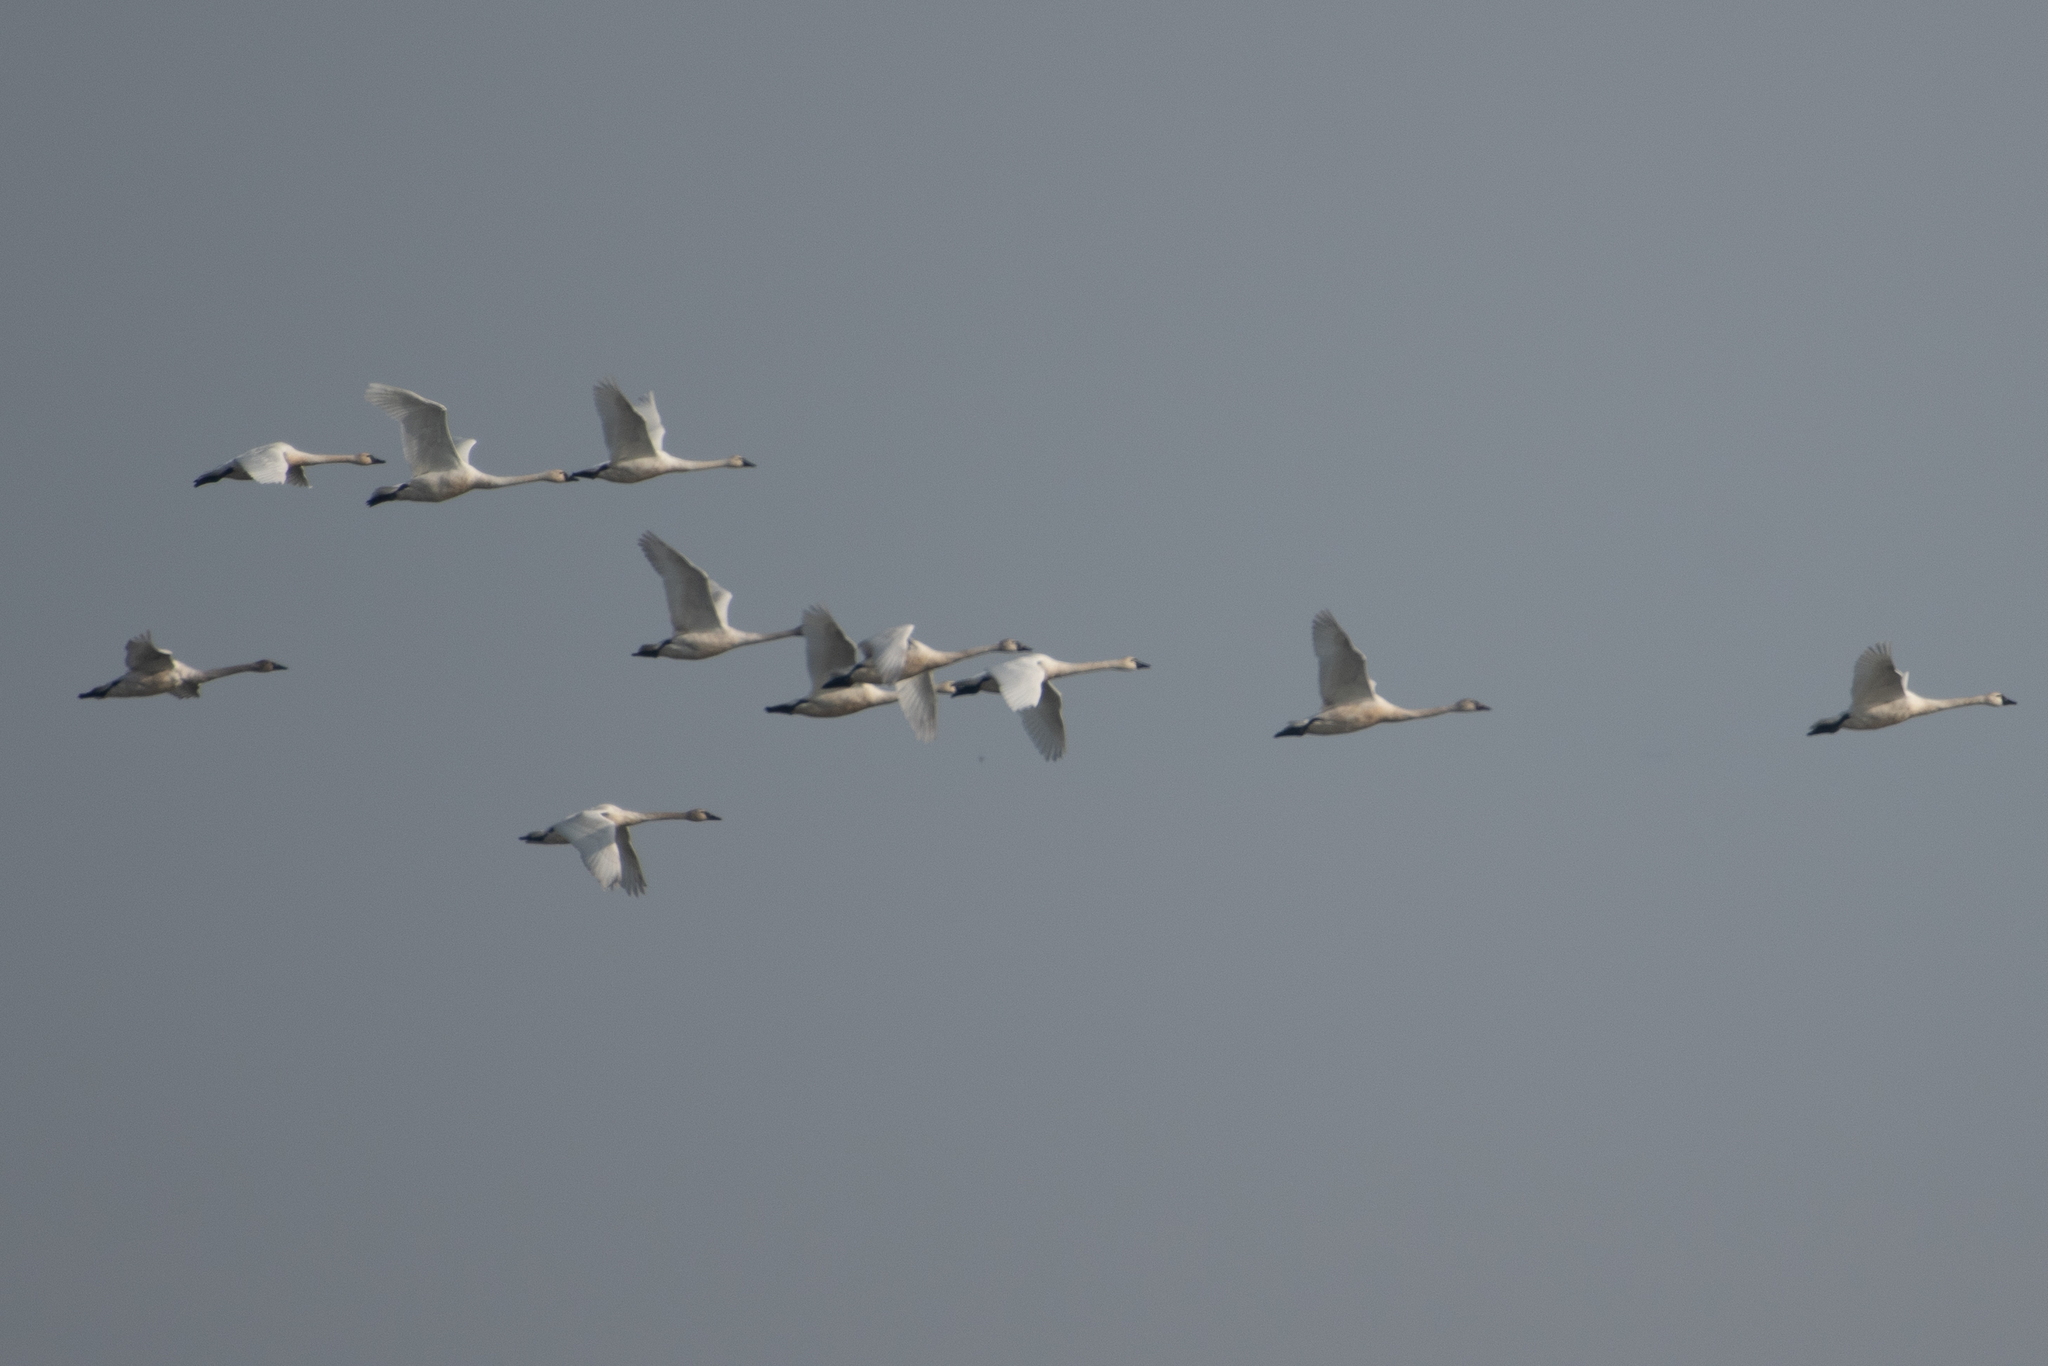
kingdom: Animalia
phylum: Chordata
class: Aves
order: Anseriformes
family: Anatidae
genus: Cygnus
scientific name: Cygnus columbianus
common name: Tundra swan
